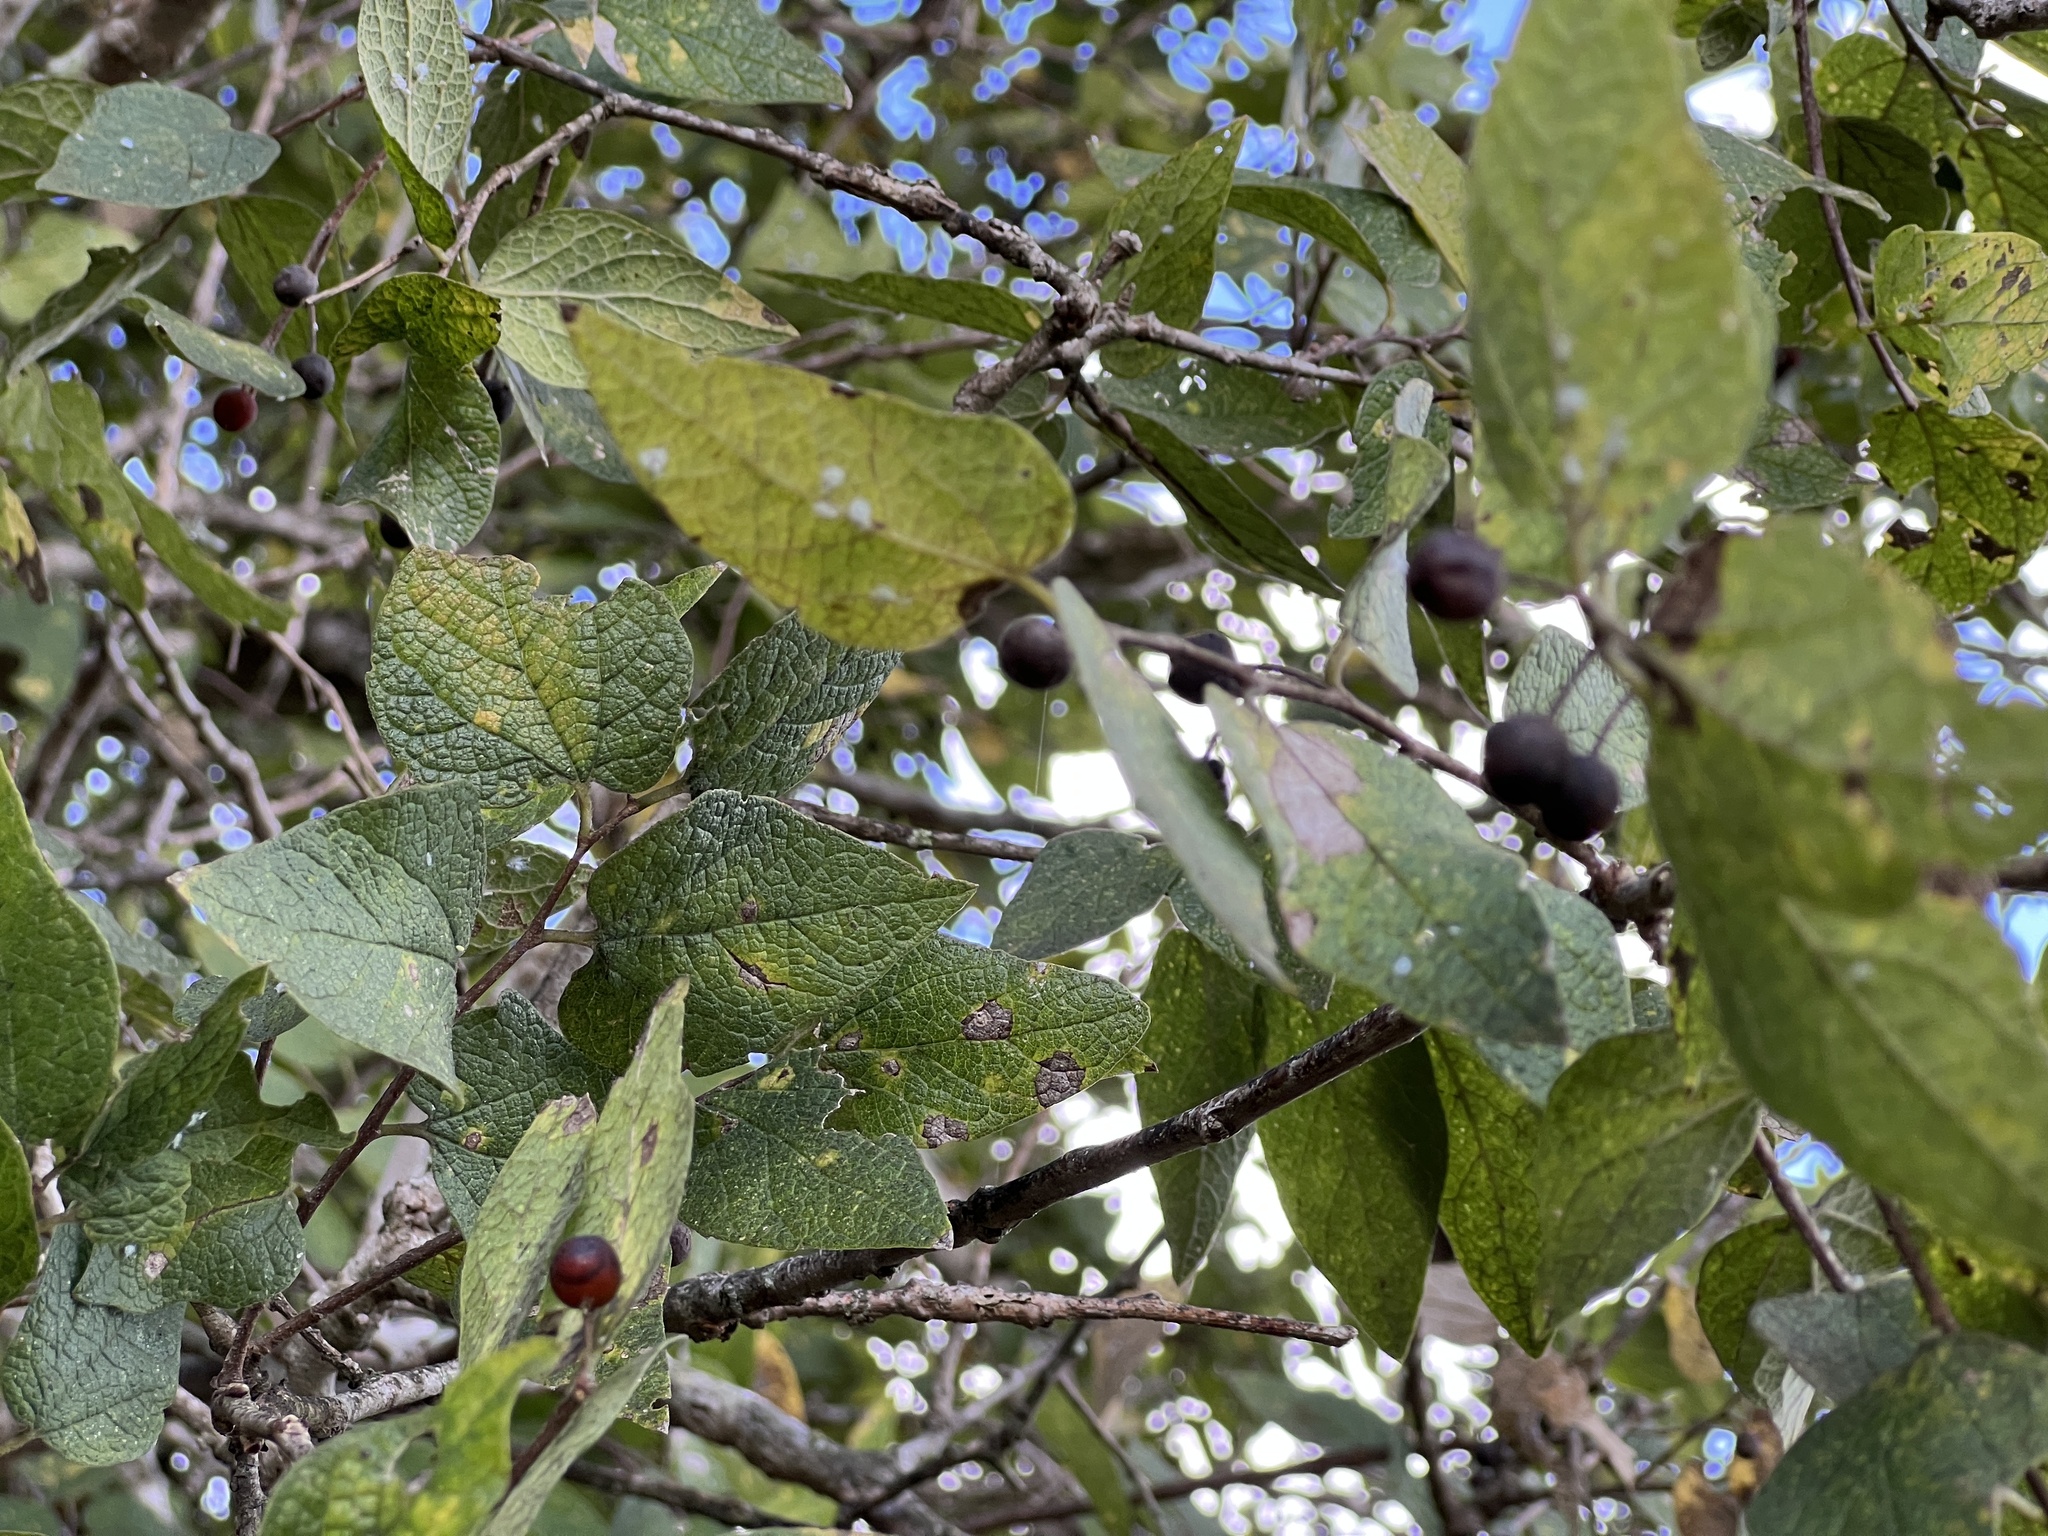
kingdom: Plantae
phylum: Tracheophyta
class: Magnoliopsida
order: Rosales
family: Cannabaceae
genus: Celtis
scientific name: Celtis reticulata
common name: Netleaf hackberry
